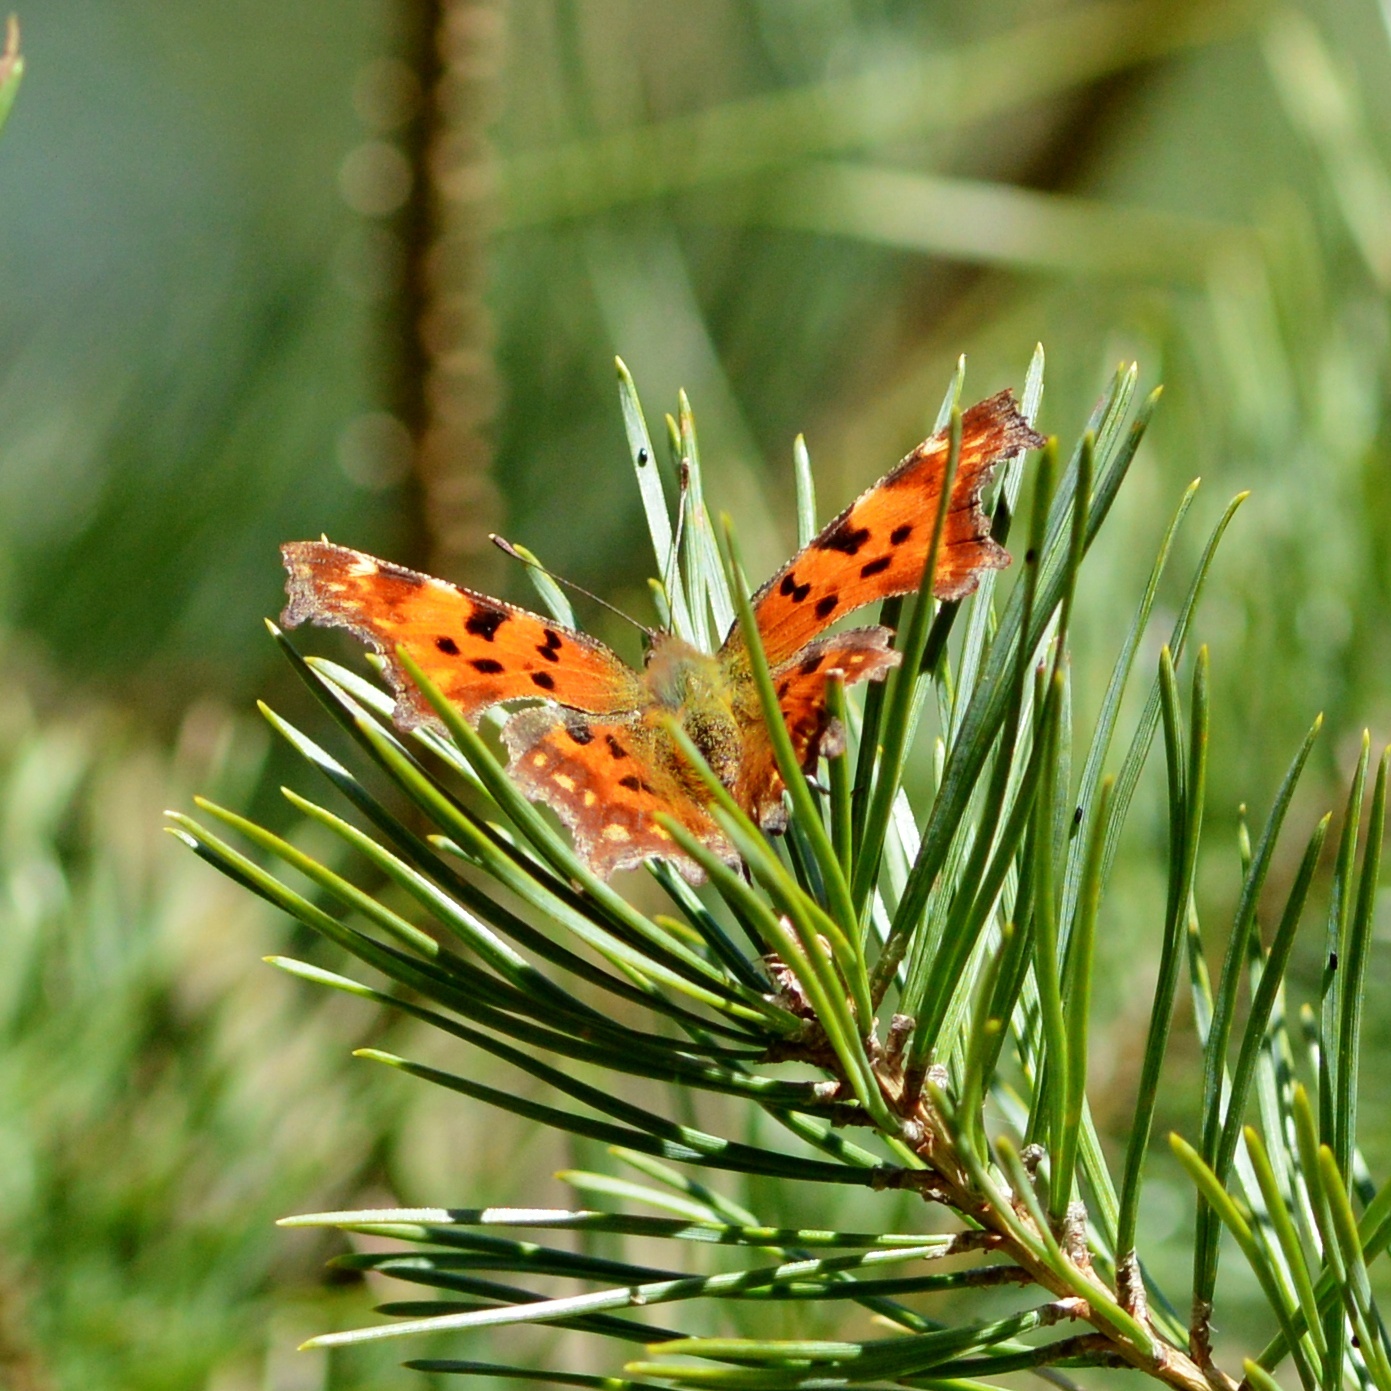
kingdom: Animalia
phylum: Arthropoda
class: Insecta
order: Lepidoptera
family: Nymphalidae
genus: Polygonia
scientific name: Polygonia c-album
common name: Comma
